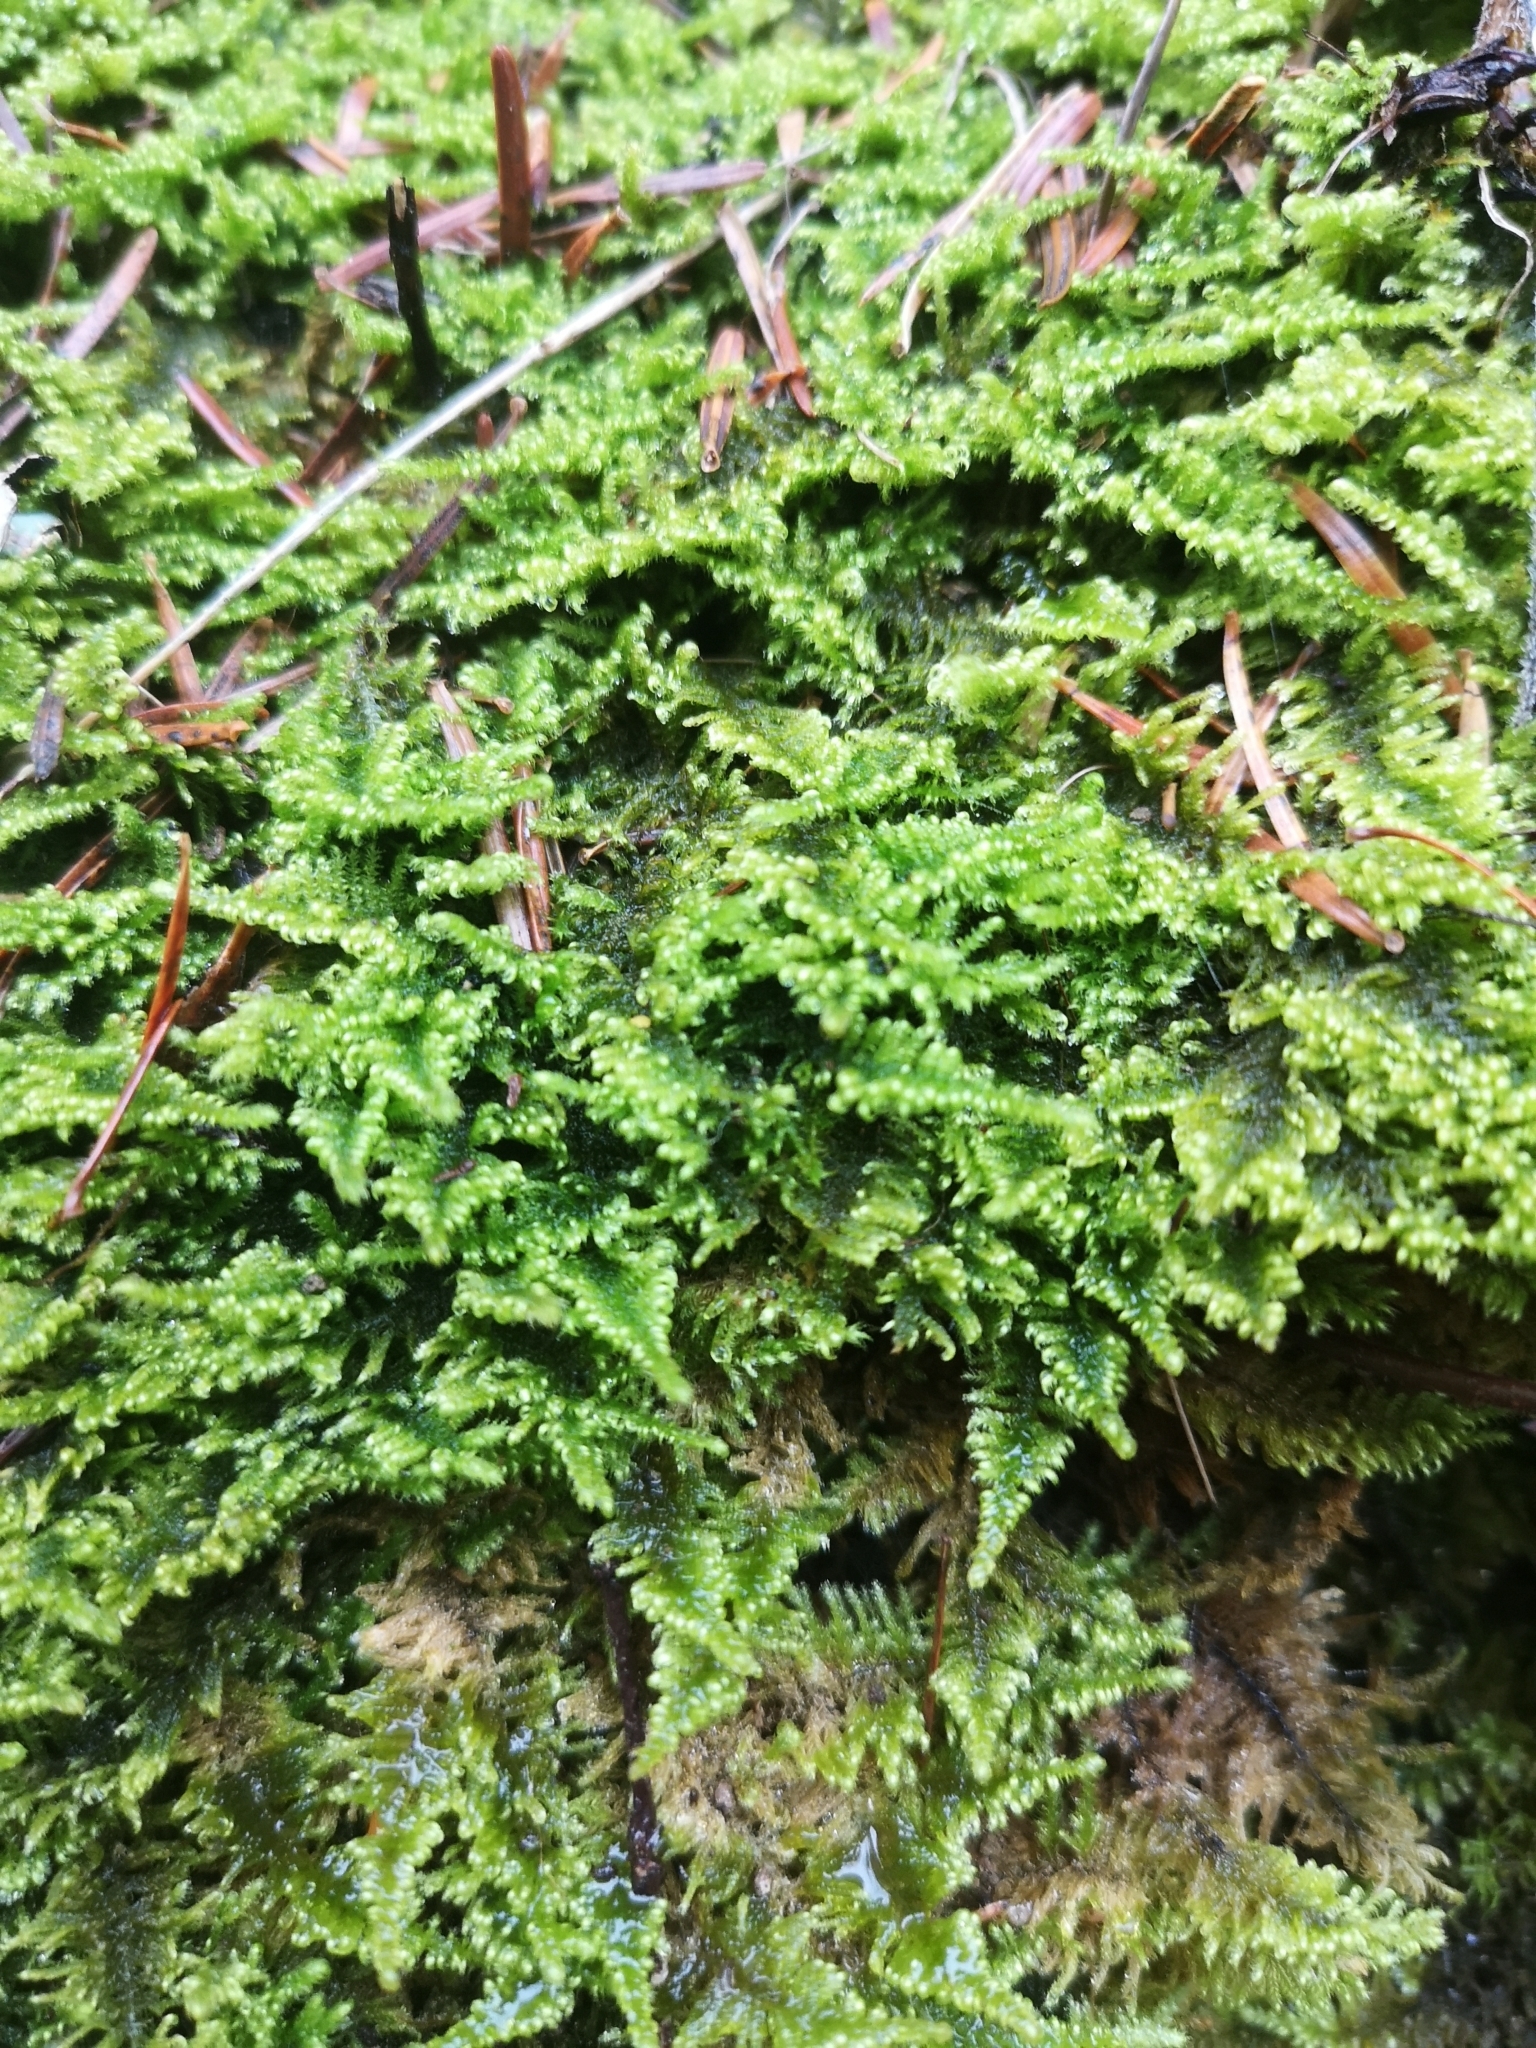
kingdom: Plantae
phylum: Bryophyta
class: Bryopsida
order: Hypnales
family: Myuriaceae
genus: Ctenidium
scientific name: Ctenidium molluscum
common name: Chalk comb-moss
